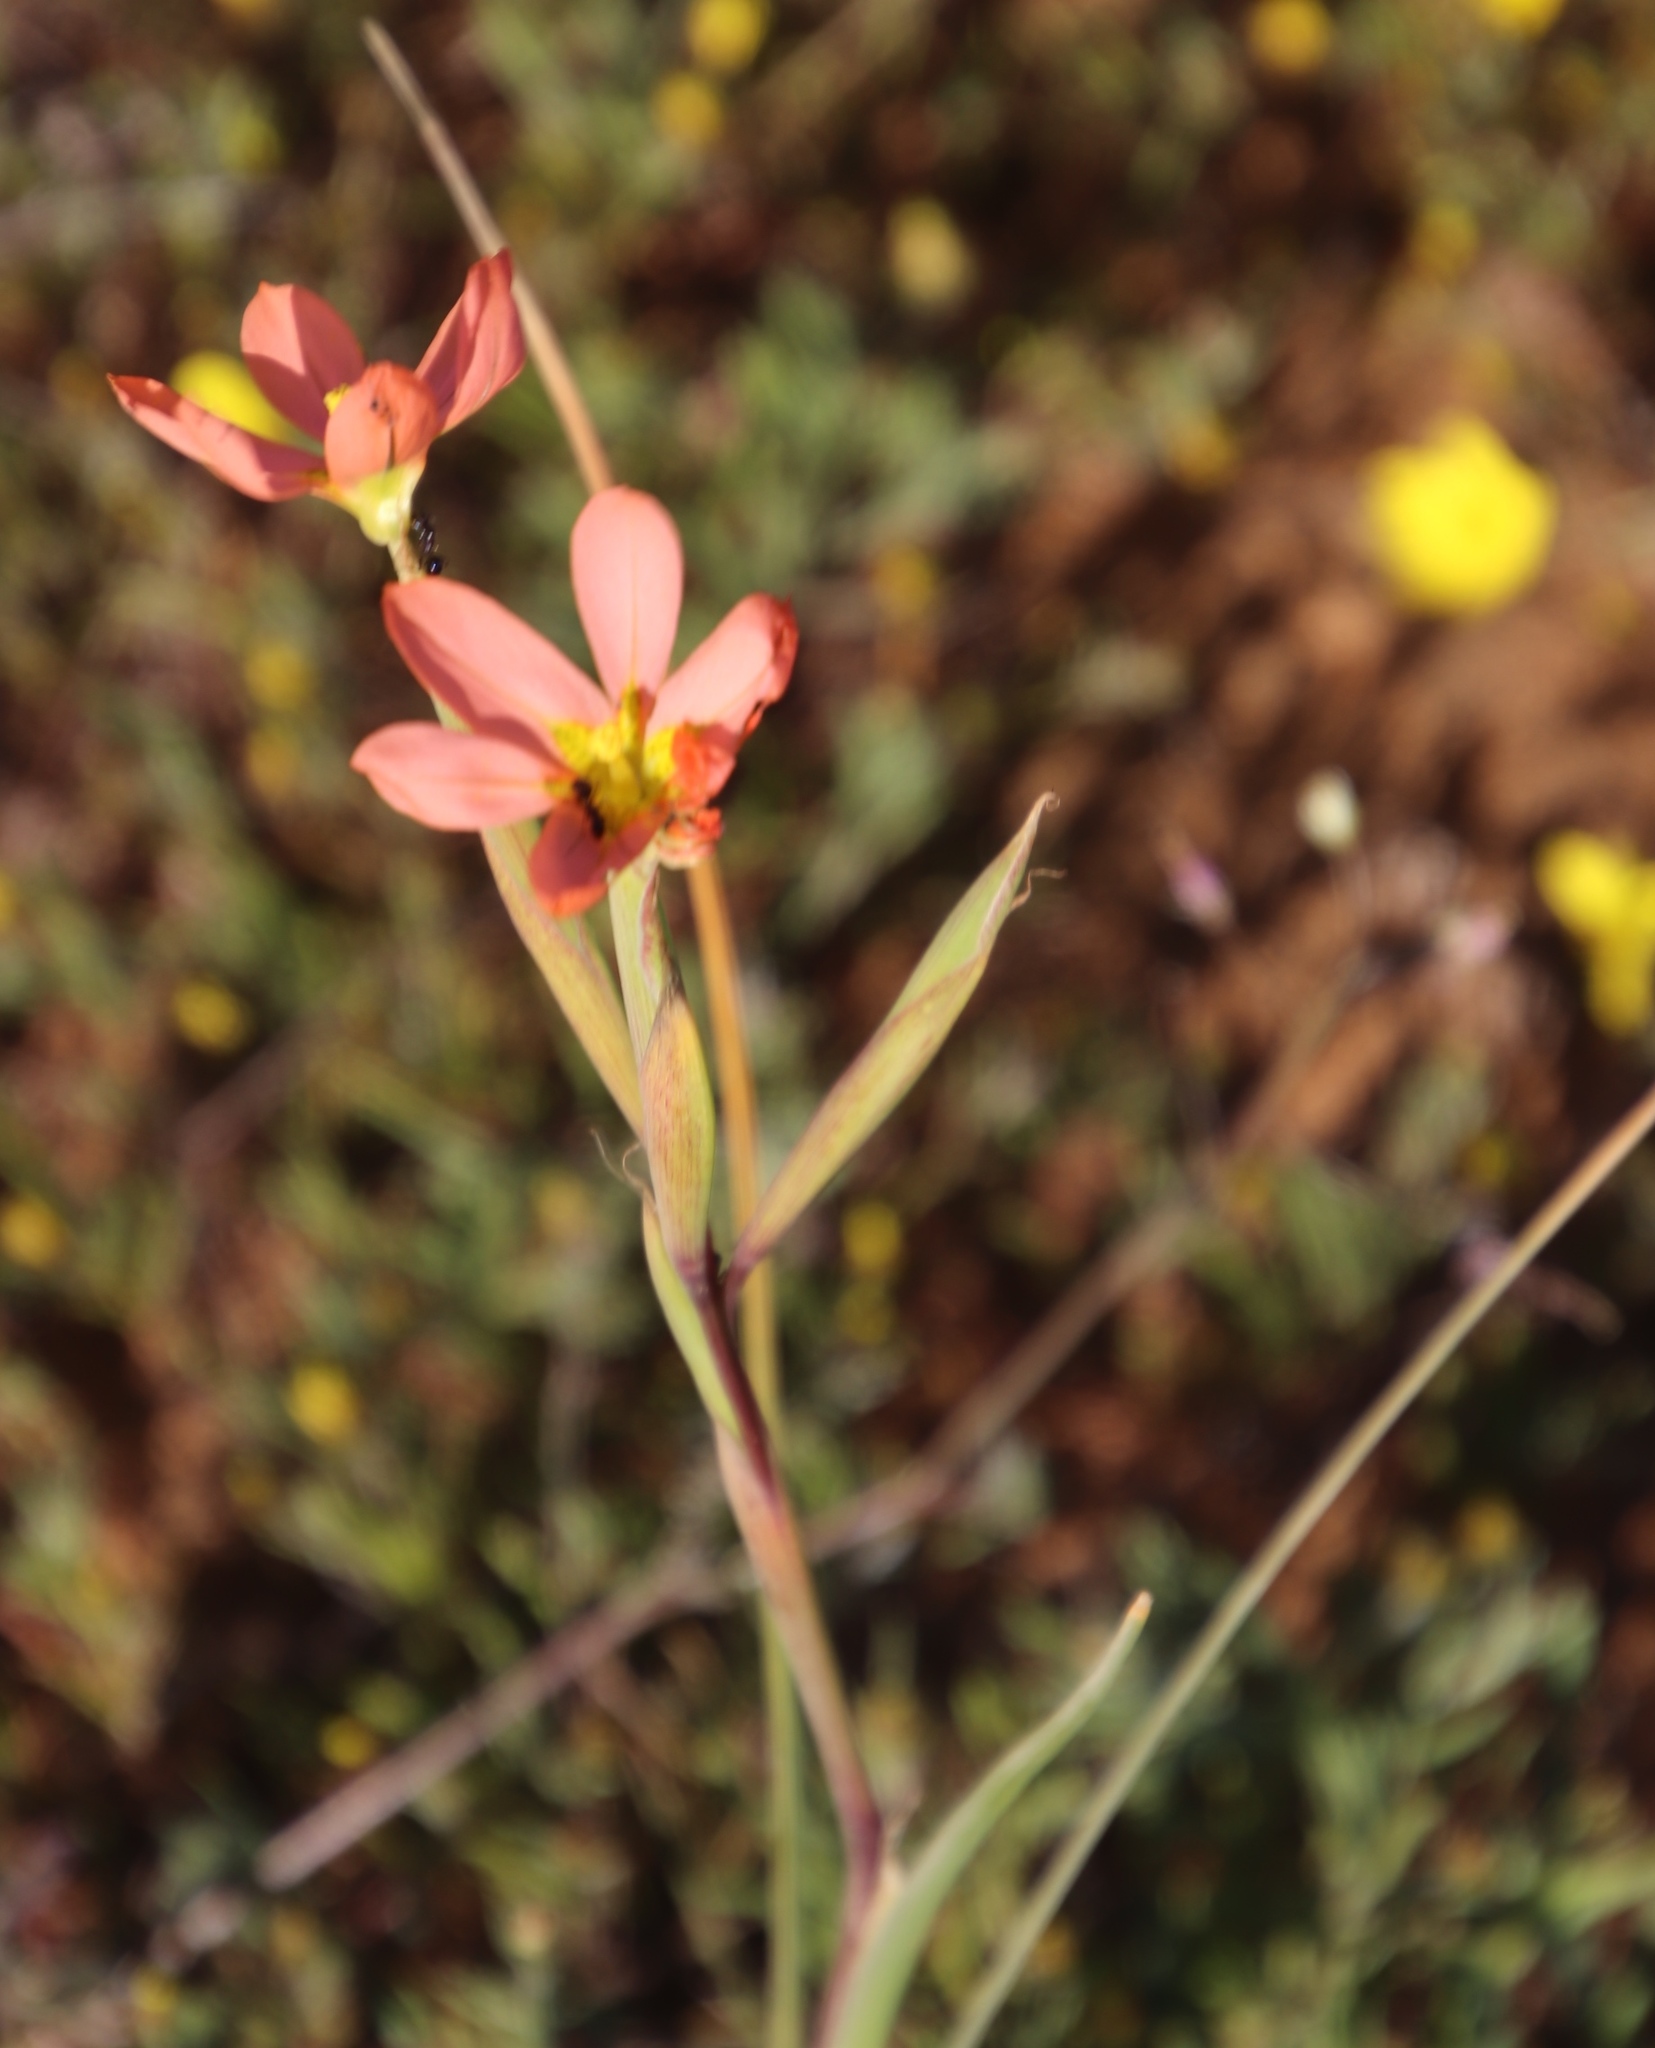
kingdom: Plantae
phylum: Tracheophyta
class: Liliopsida
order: Asparagales
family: Iridaceae
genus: Moraea
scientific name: Moraea miniata
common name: Two-leaf cape-tulip
